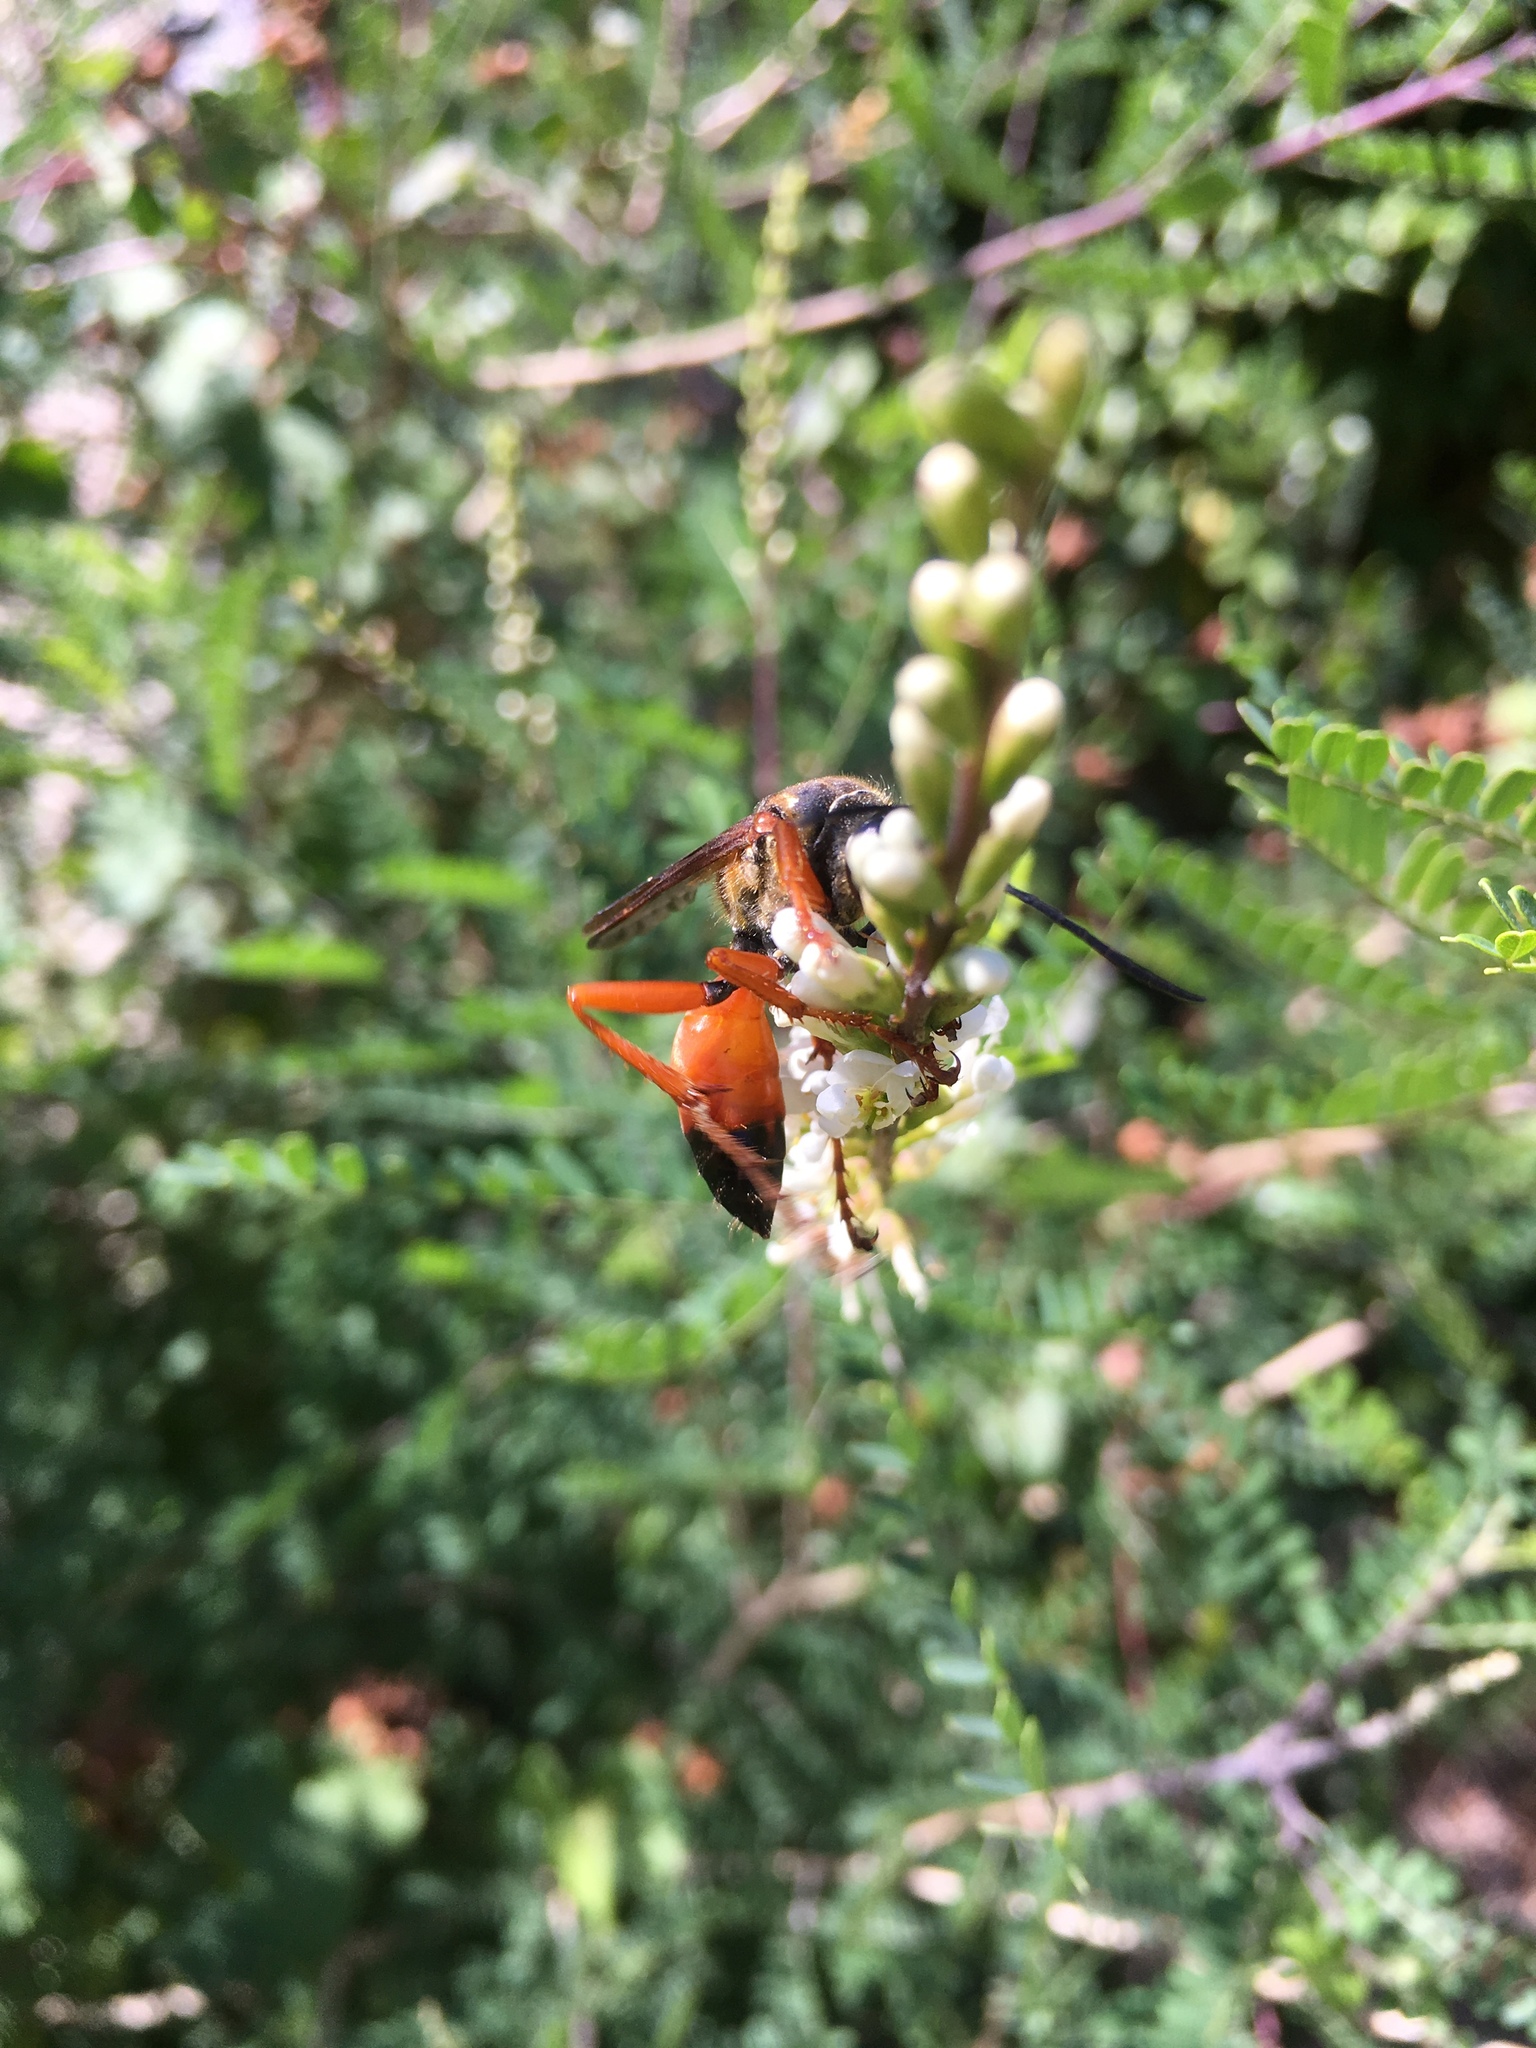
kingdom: Animalia
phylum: Arthropoda
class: Insecta
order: Hymenoptera
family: Sphecidae
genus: Sphex
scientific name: Sphex ichneumoneus
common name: Great golden digger wasp
